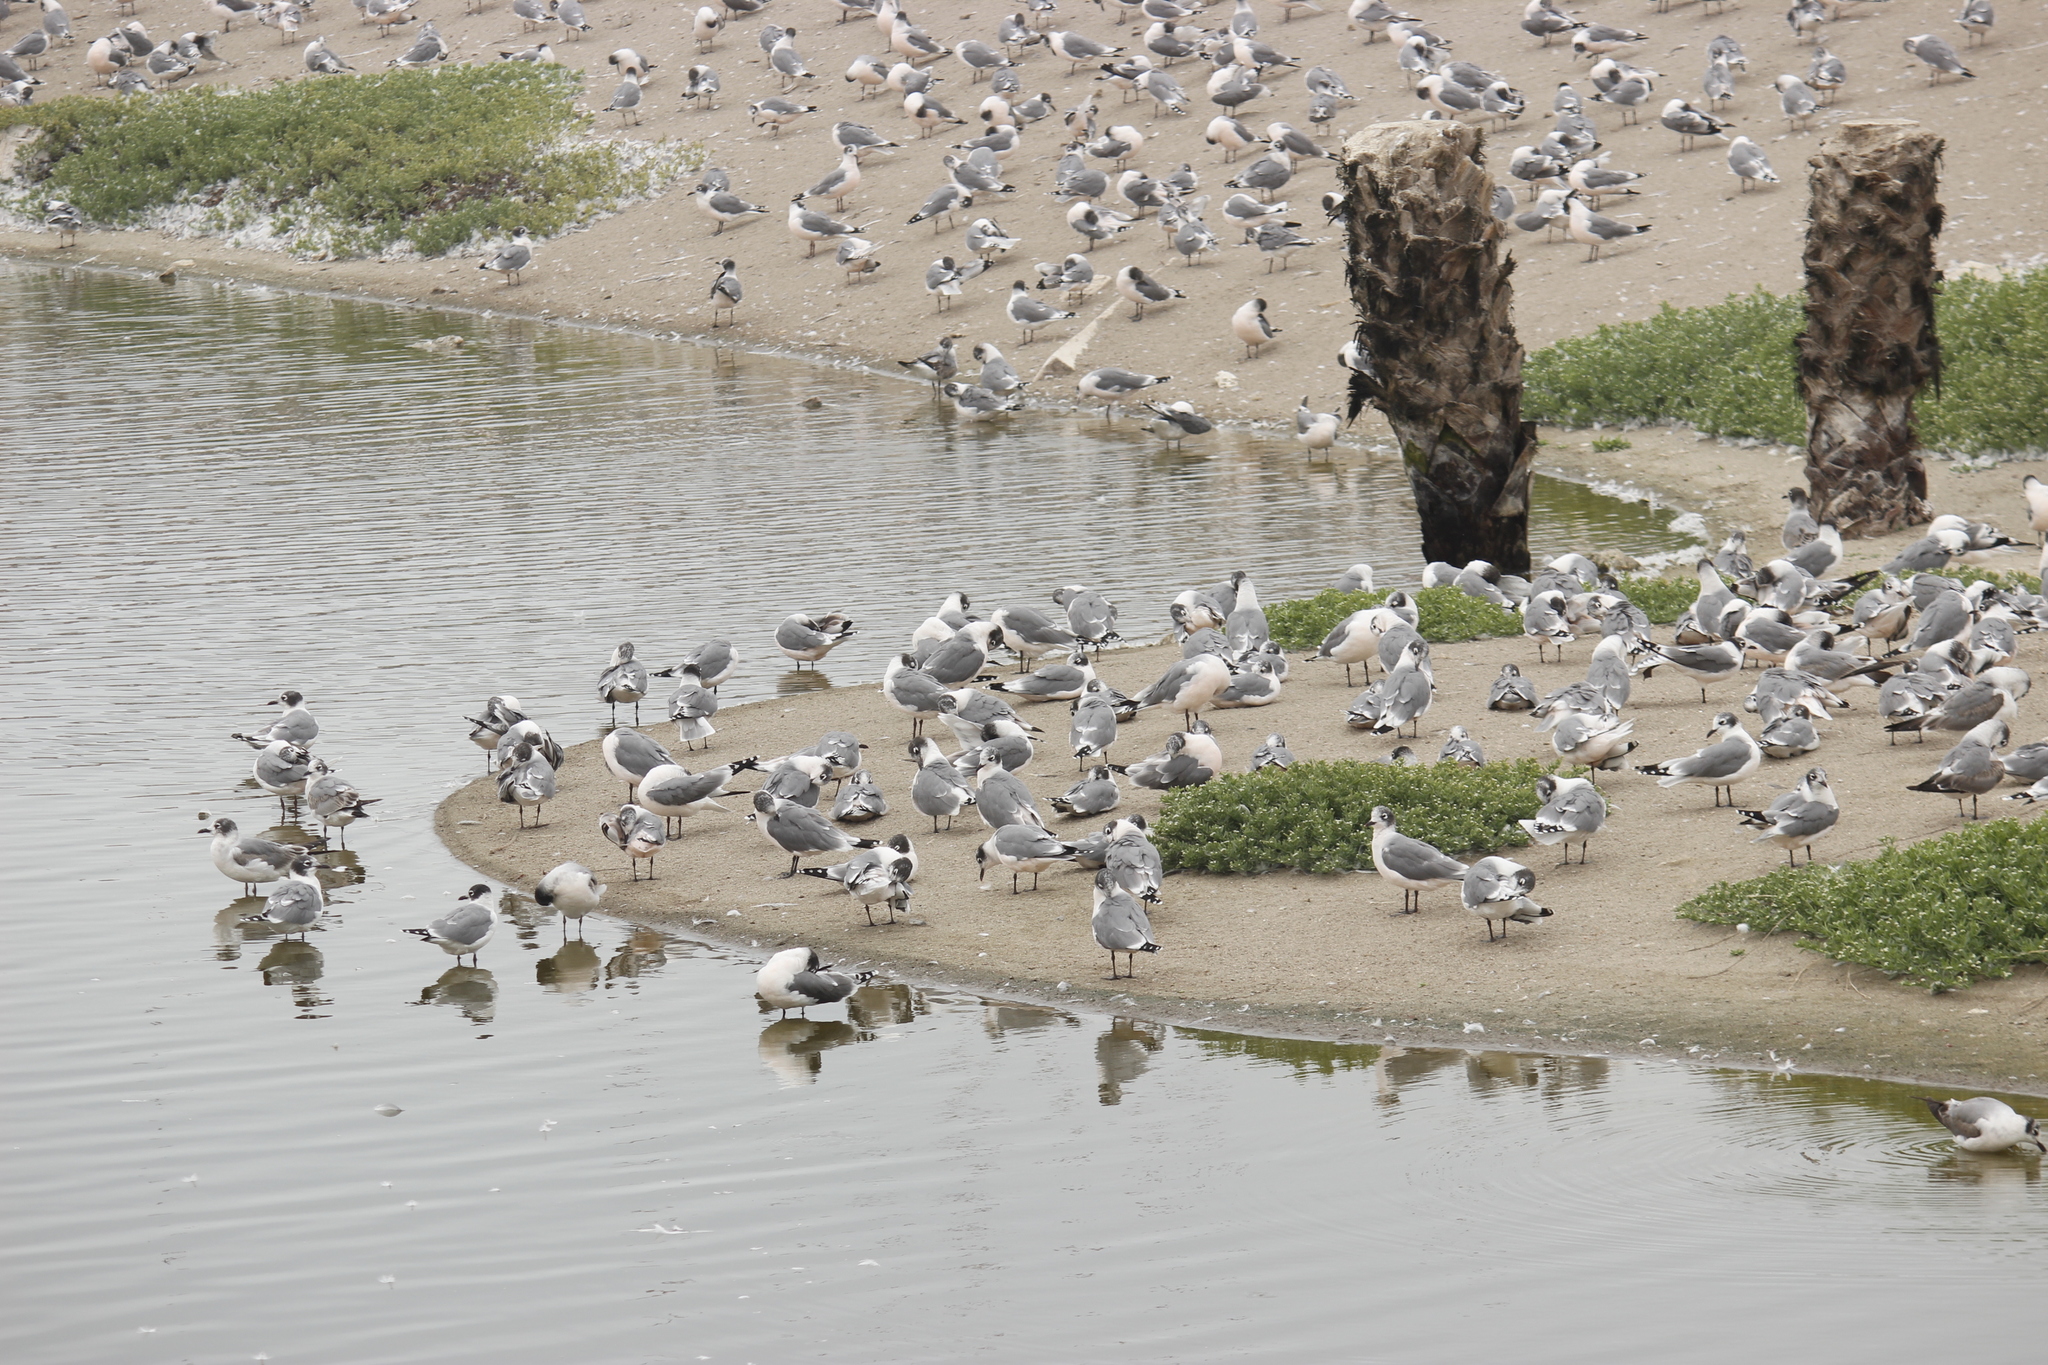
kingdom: Animalia
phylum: Chordata
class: Aves
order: Charadriiformes
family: Laridae
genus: Leucophaeus
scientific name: Leucophaeus pipixcan
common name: Franklin's gull
